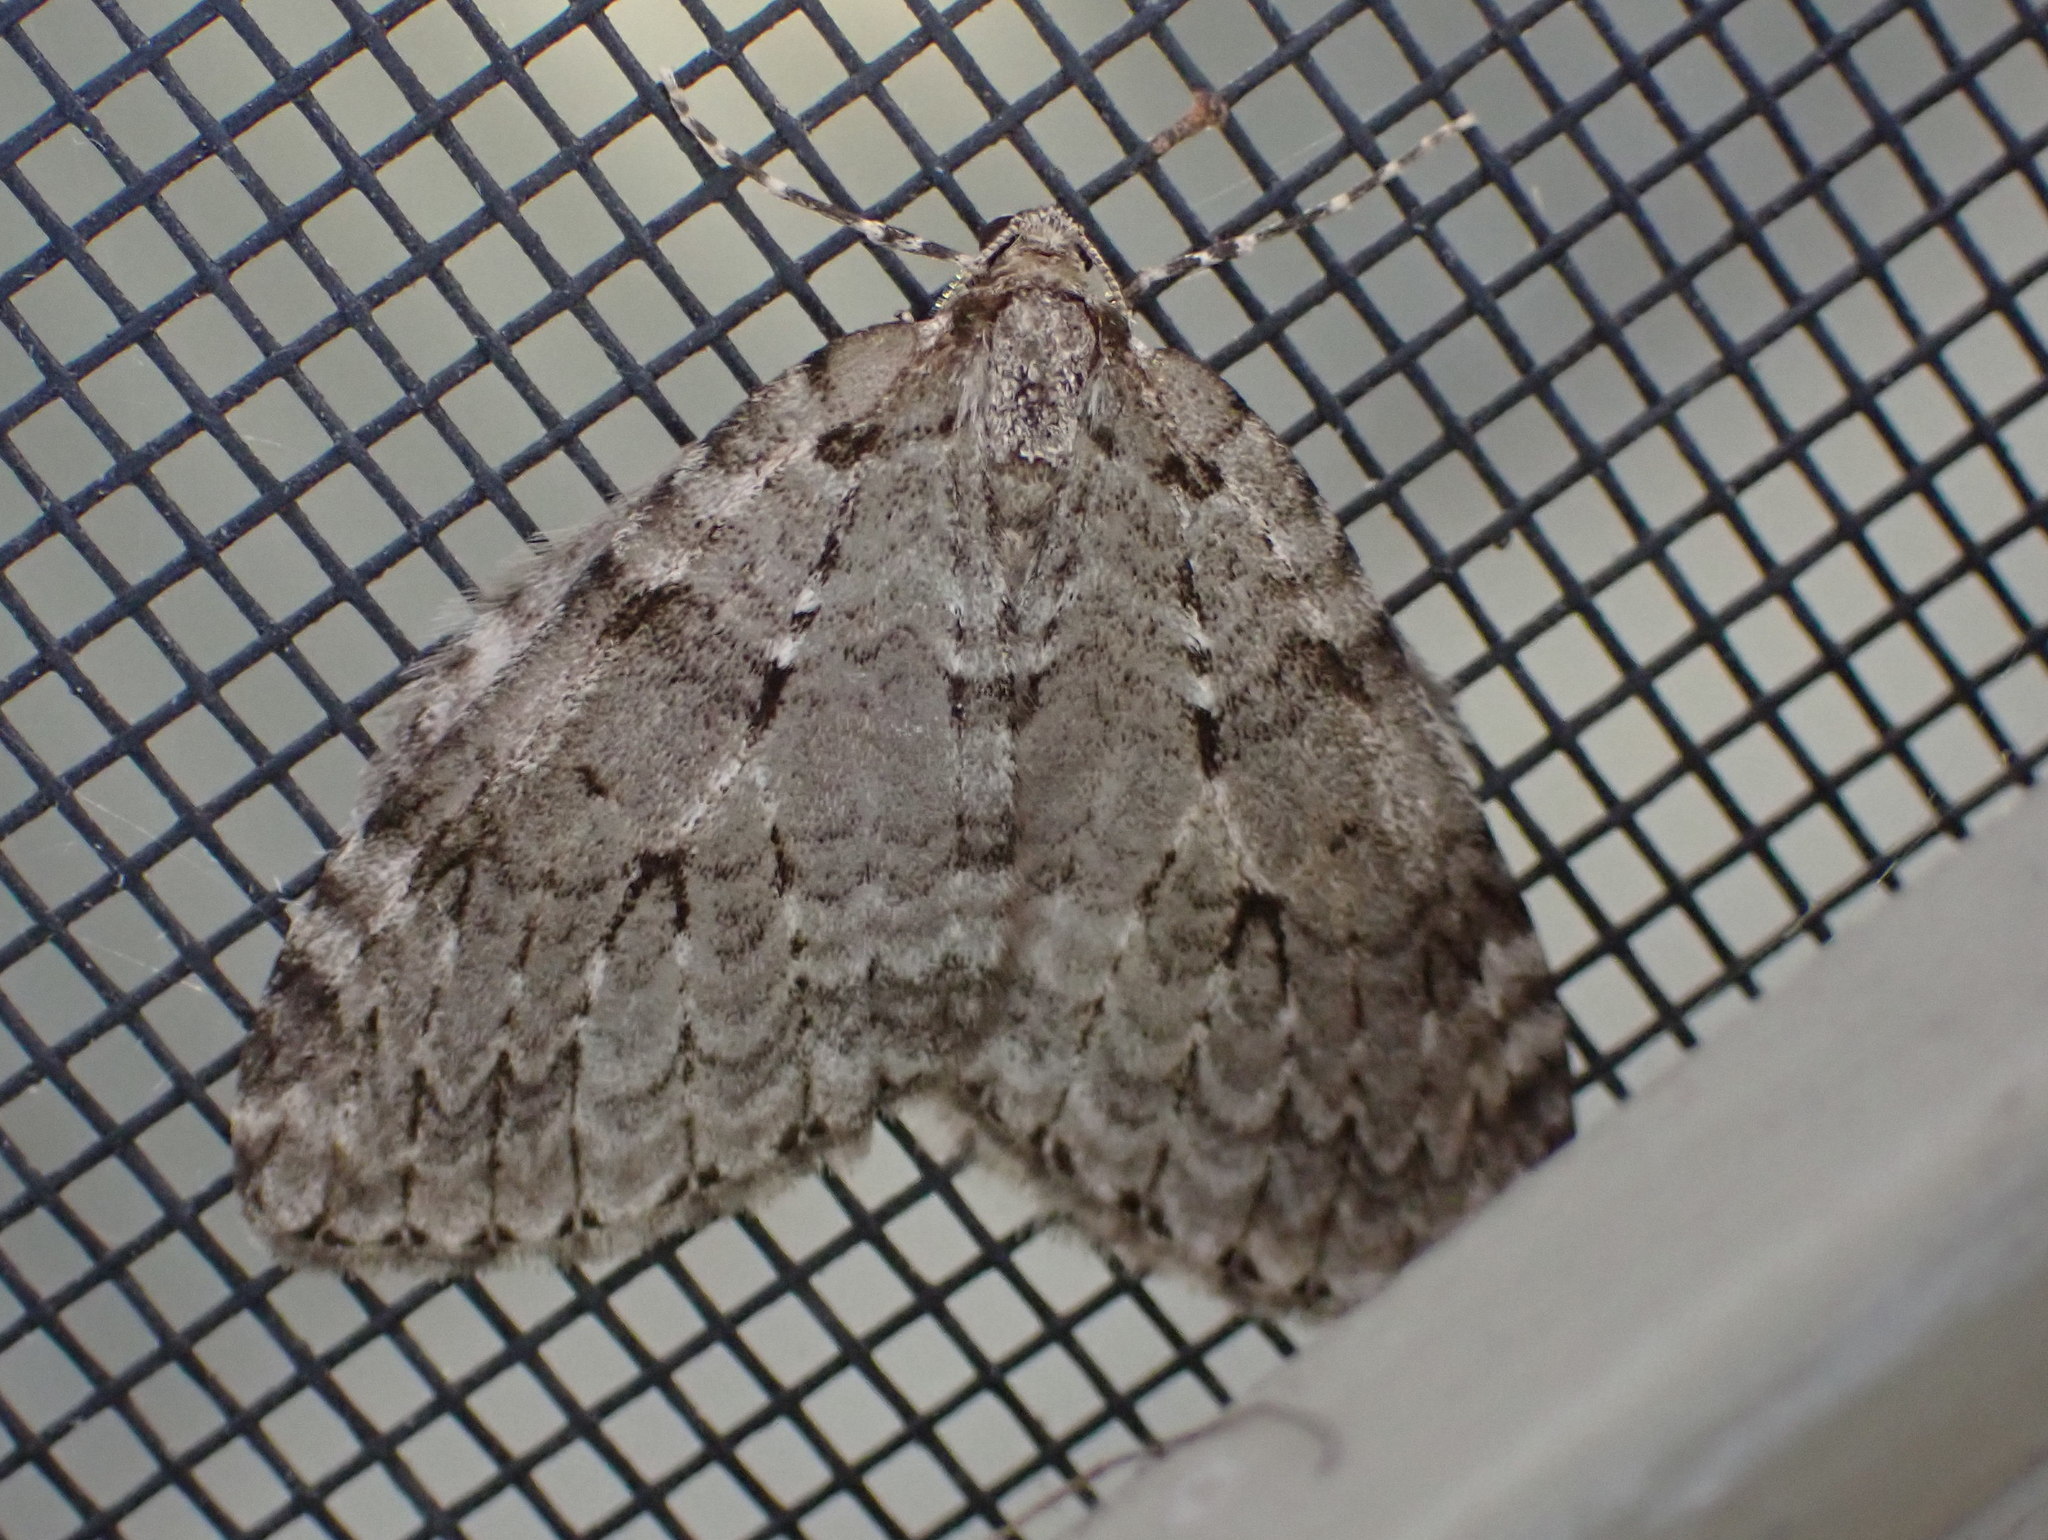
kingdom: Animalia
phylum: Arthropoda
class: Insecta
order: Lepidoptera
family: Geometridae
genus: Epirrita
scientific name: Epirrita autumnata
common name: Autumnal moth
